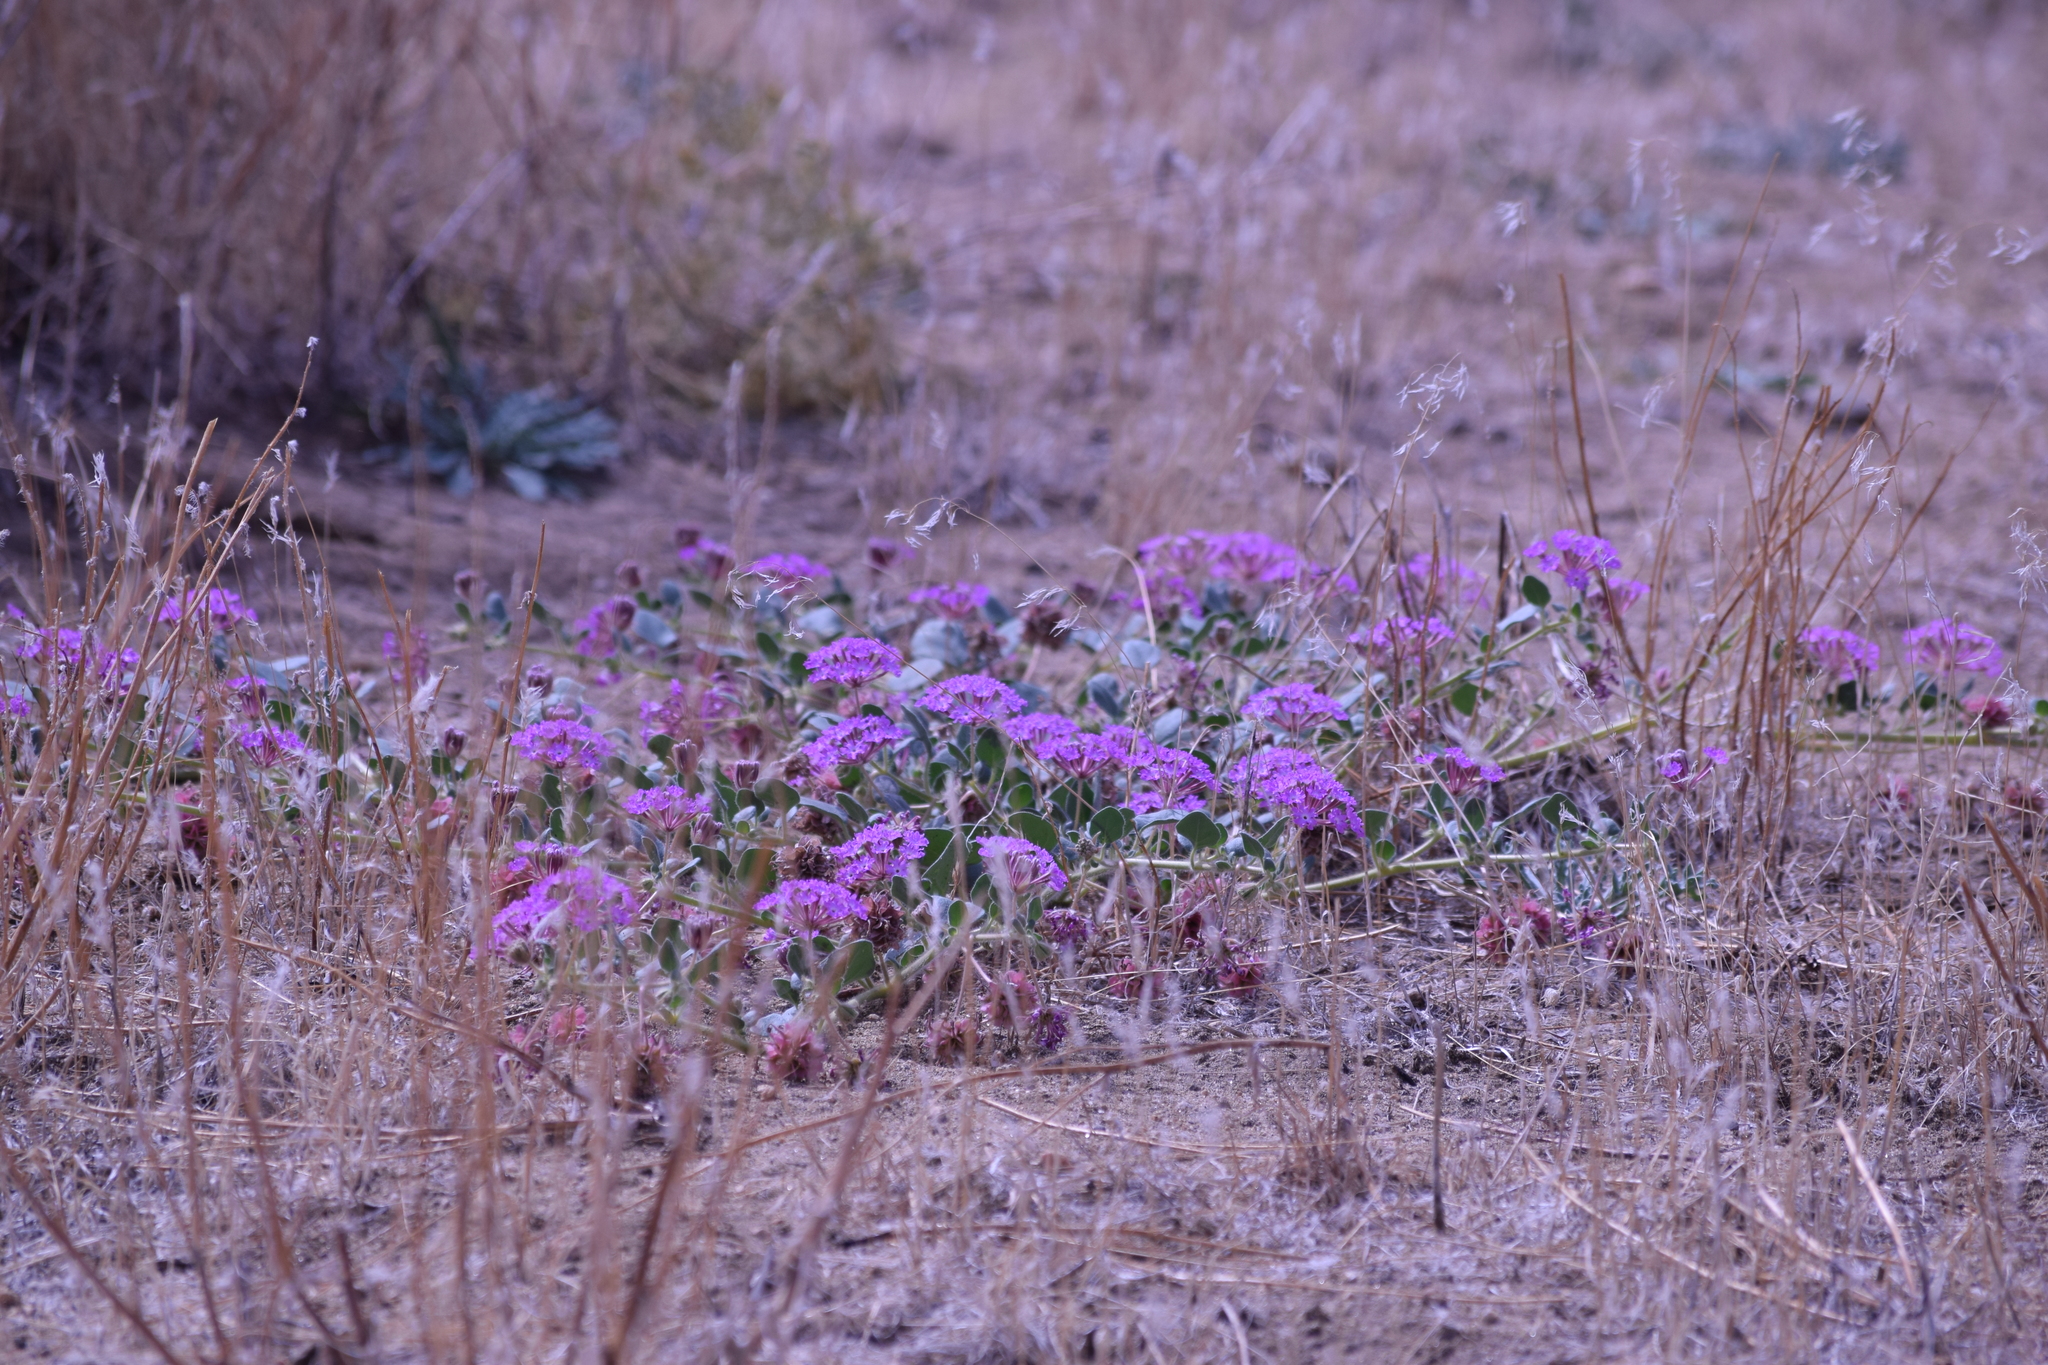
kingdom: Plantae
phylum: Tracheophyta
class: Magnoliopsida
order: Caryophyllales
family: Nyctaginaceae
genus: Abronia
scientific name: Abronia villosa
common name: Desert sand-verbena
